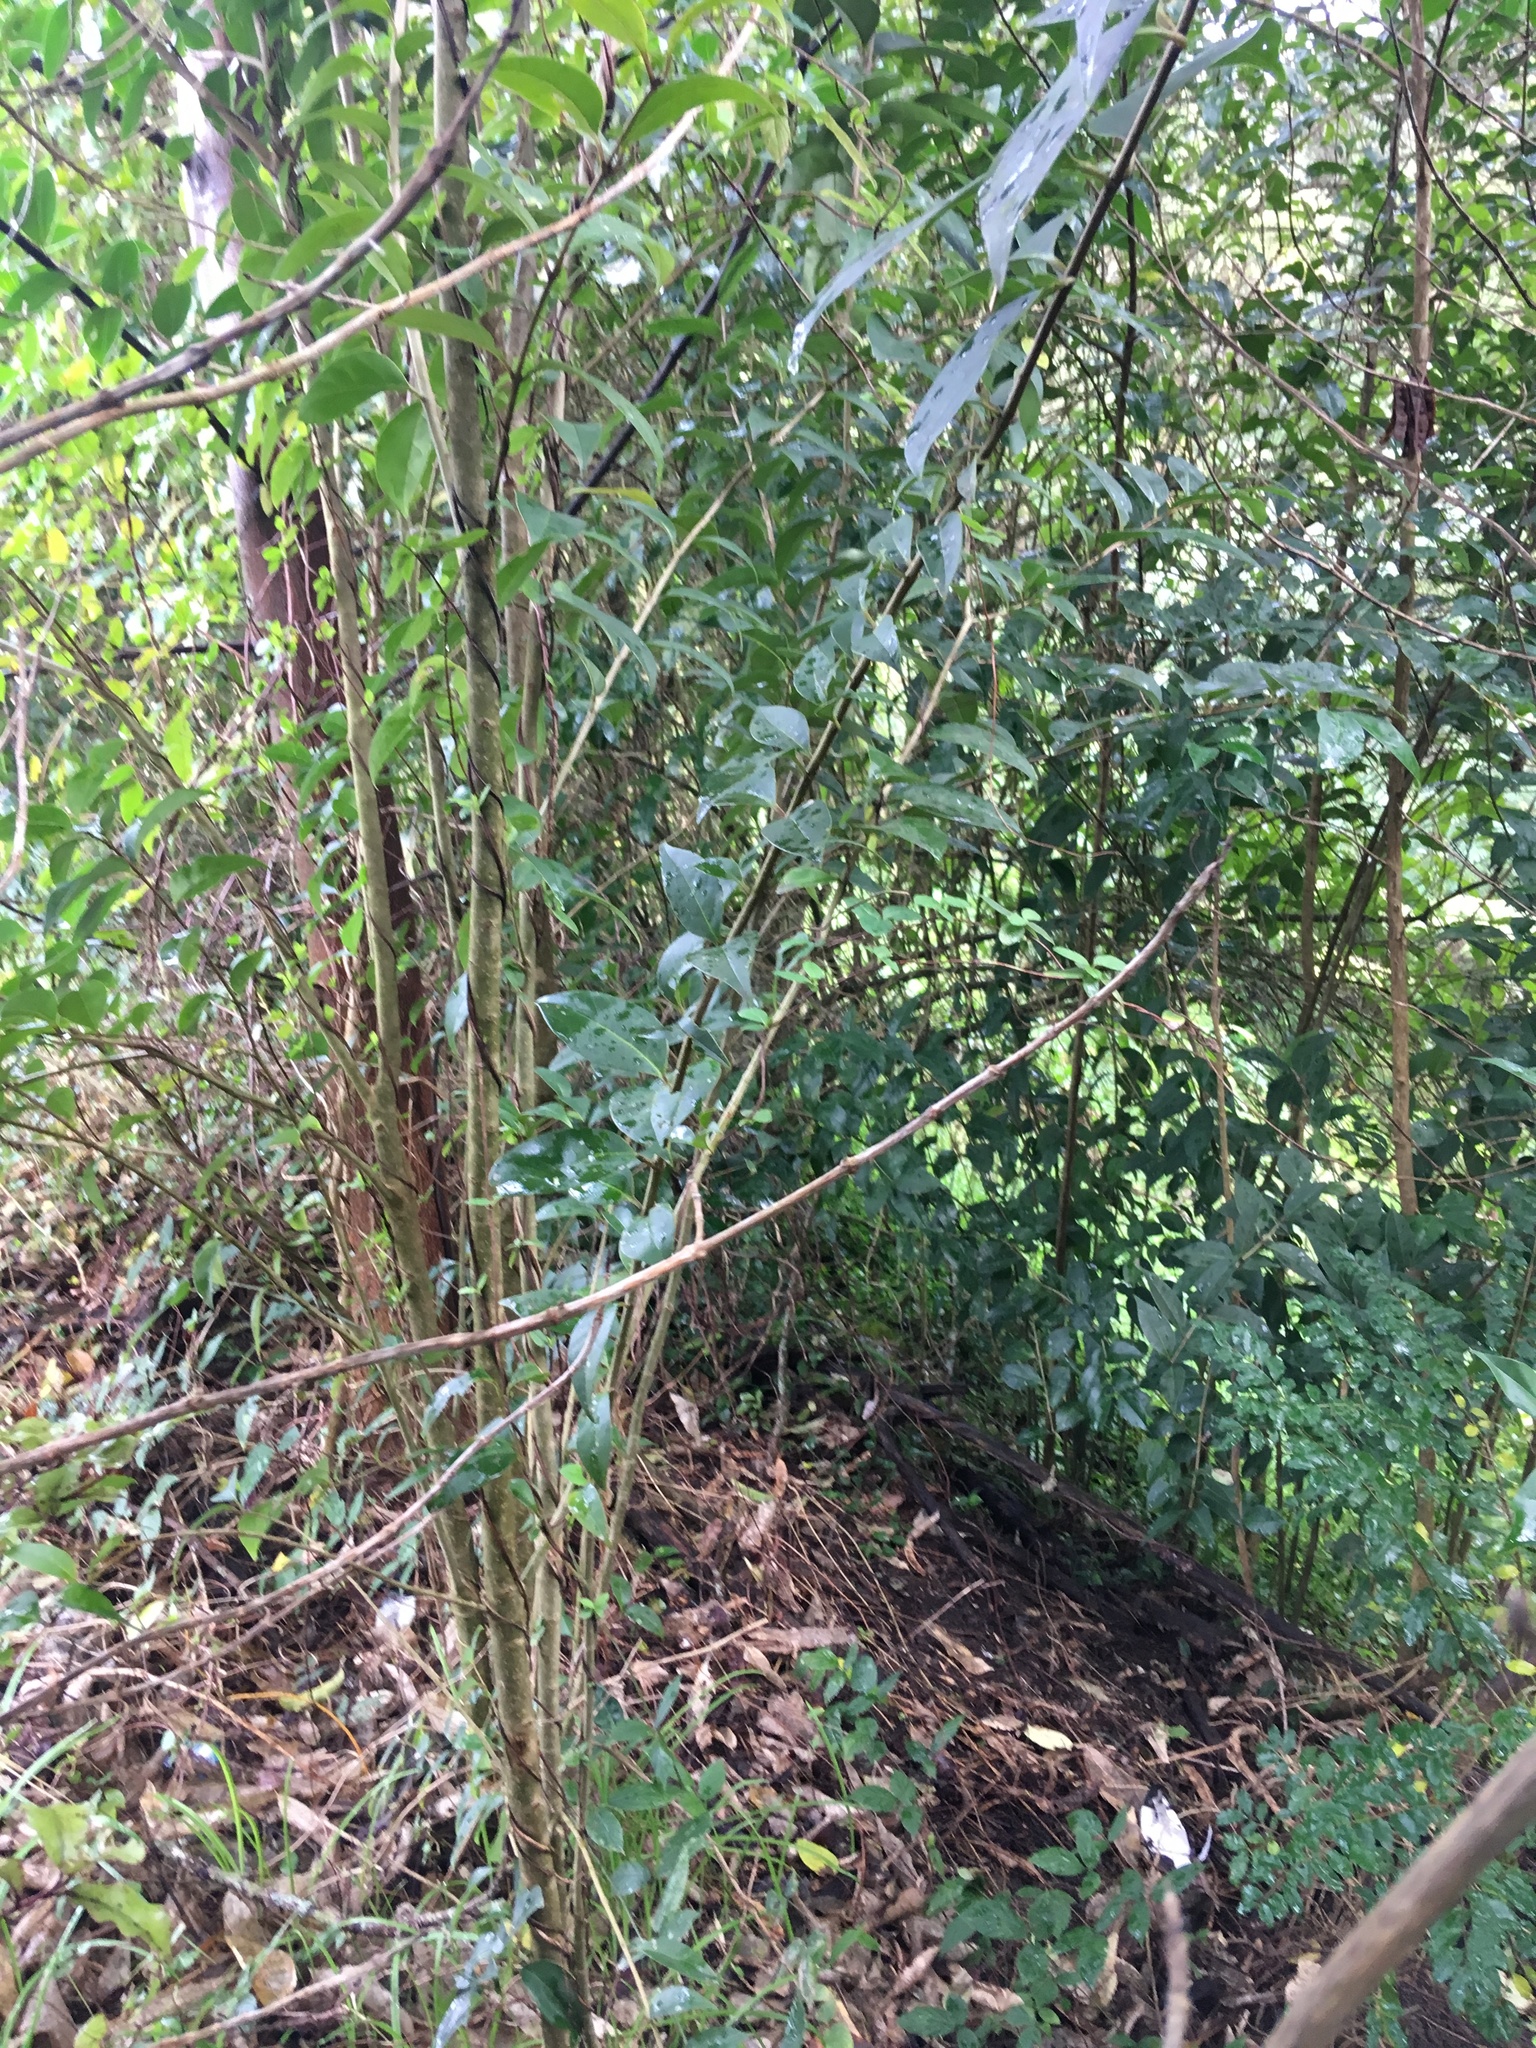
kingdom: Plantae
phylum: Tracheophyta
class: Magnoliopsida
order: Lamiales
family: Oleaceae
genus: Ligustrum
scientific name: Ligustrum lucidum
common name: Glossy privet
